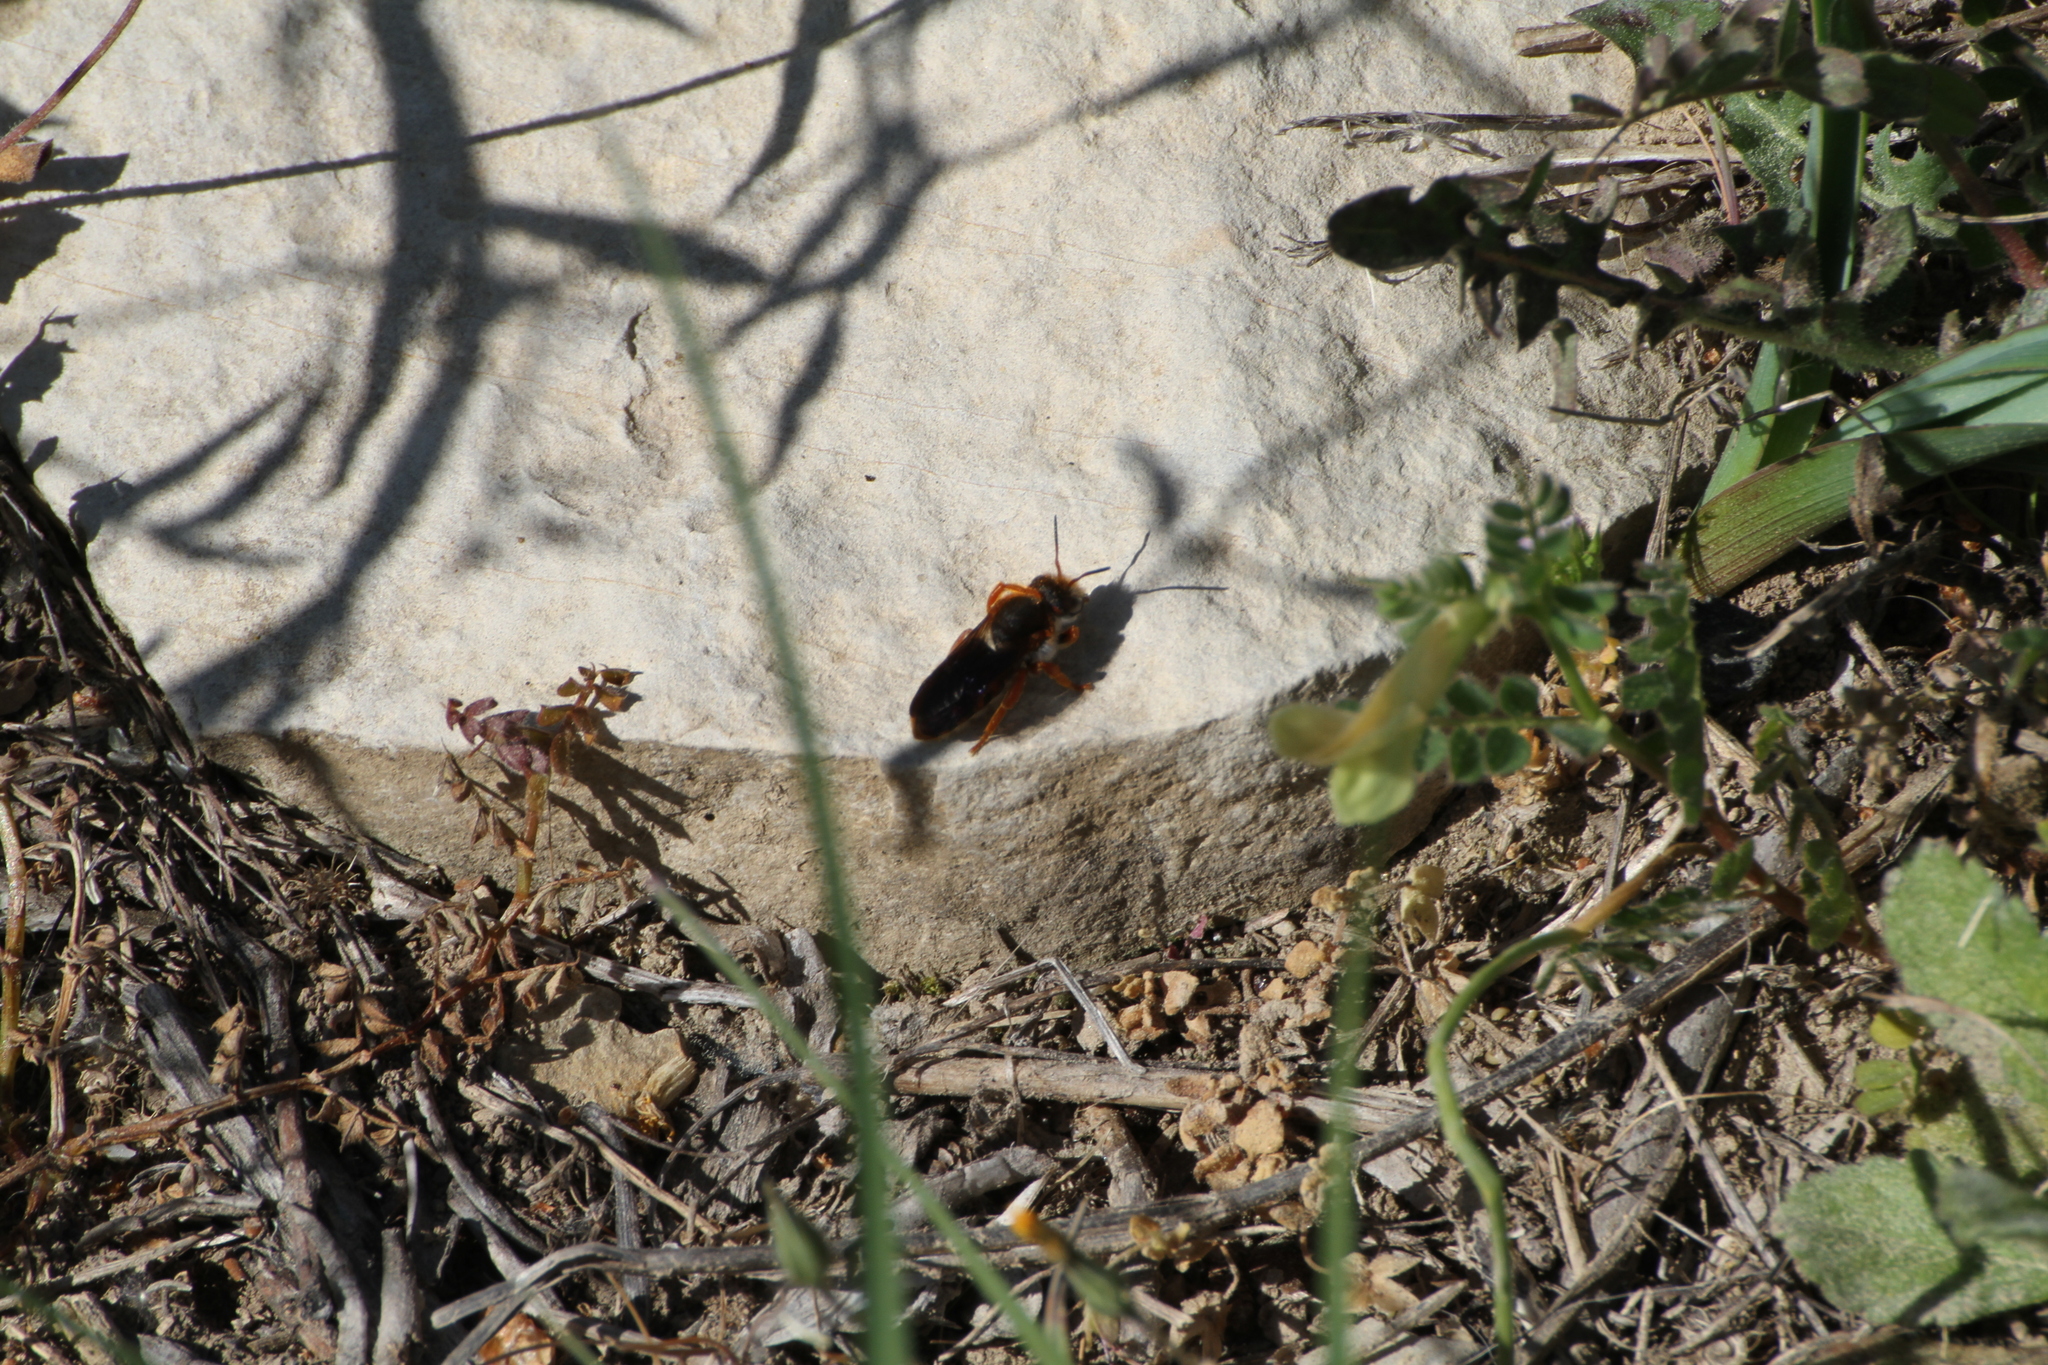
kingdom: Animalia
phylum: Arthropoda
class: Insecta
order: Hymenoptera
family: Megachilidae
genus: Rhodanthidium
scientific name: Rhodanthidium sticticum
